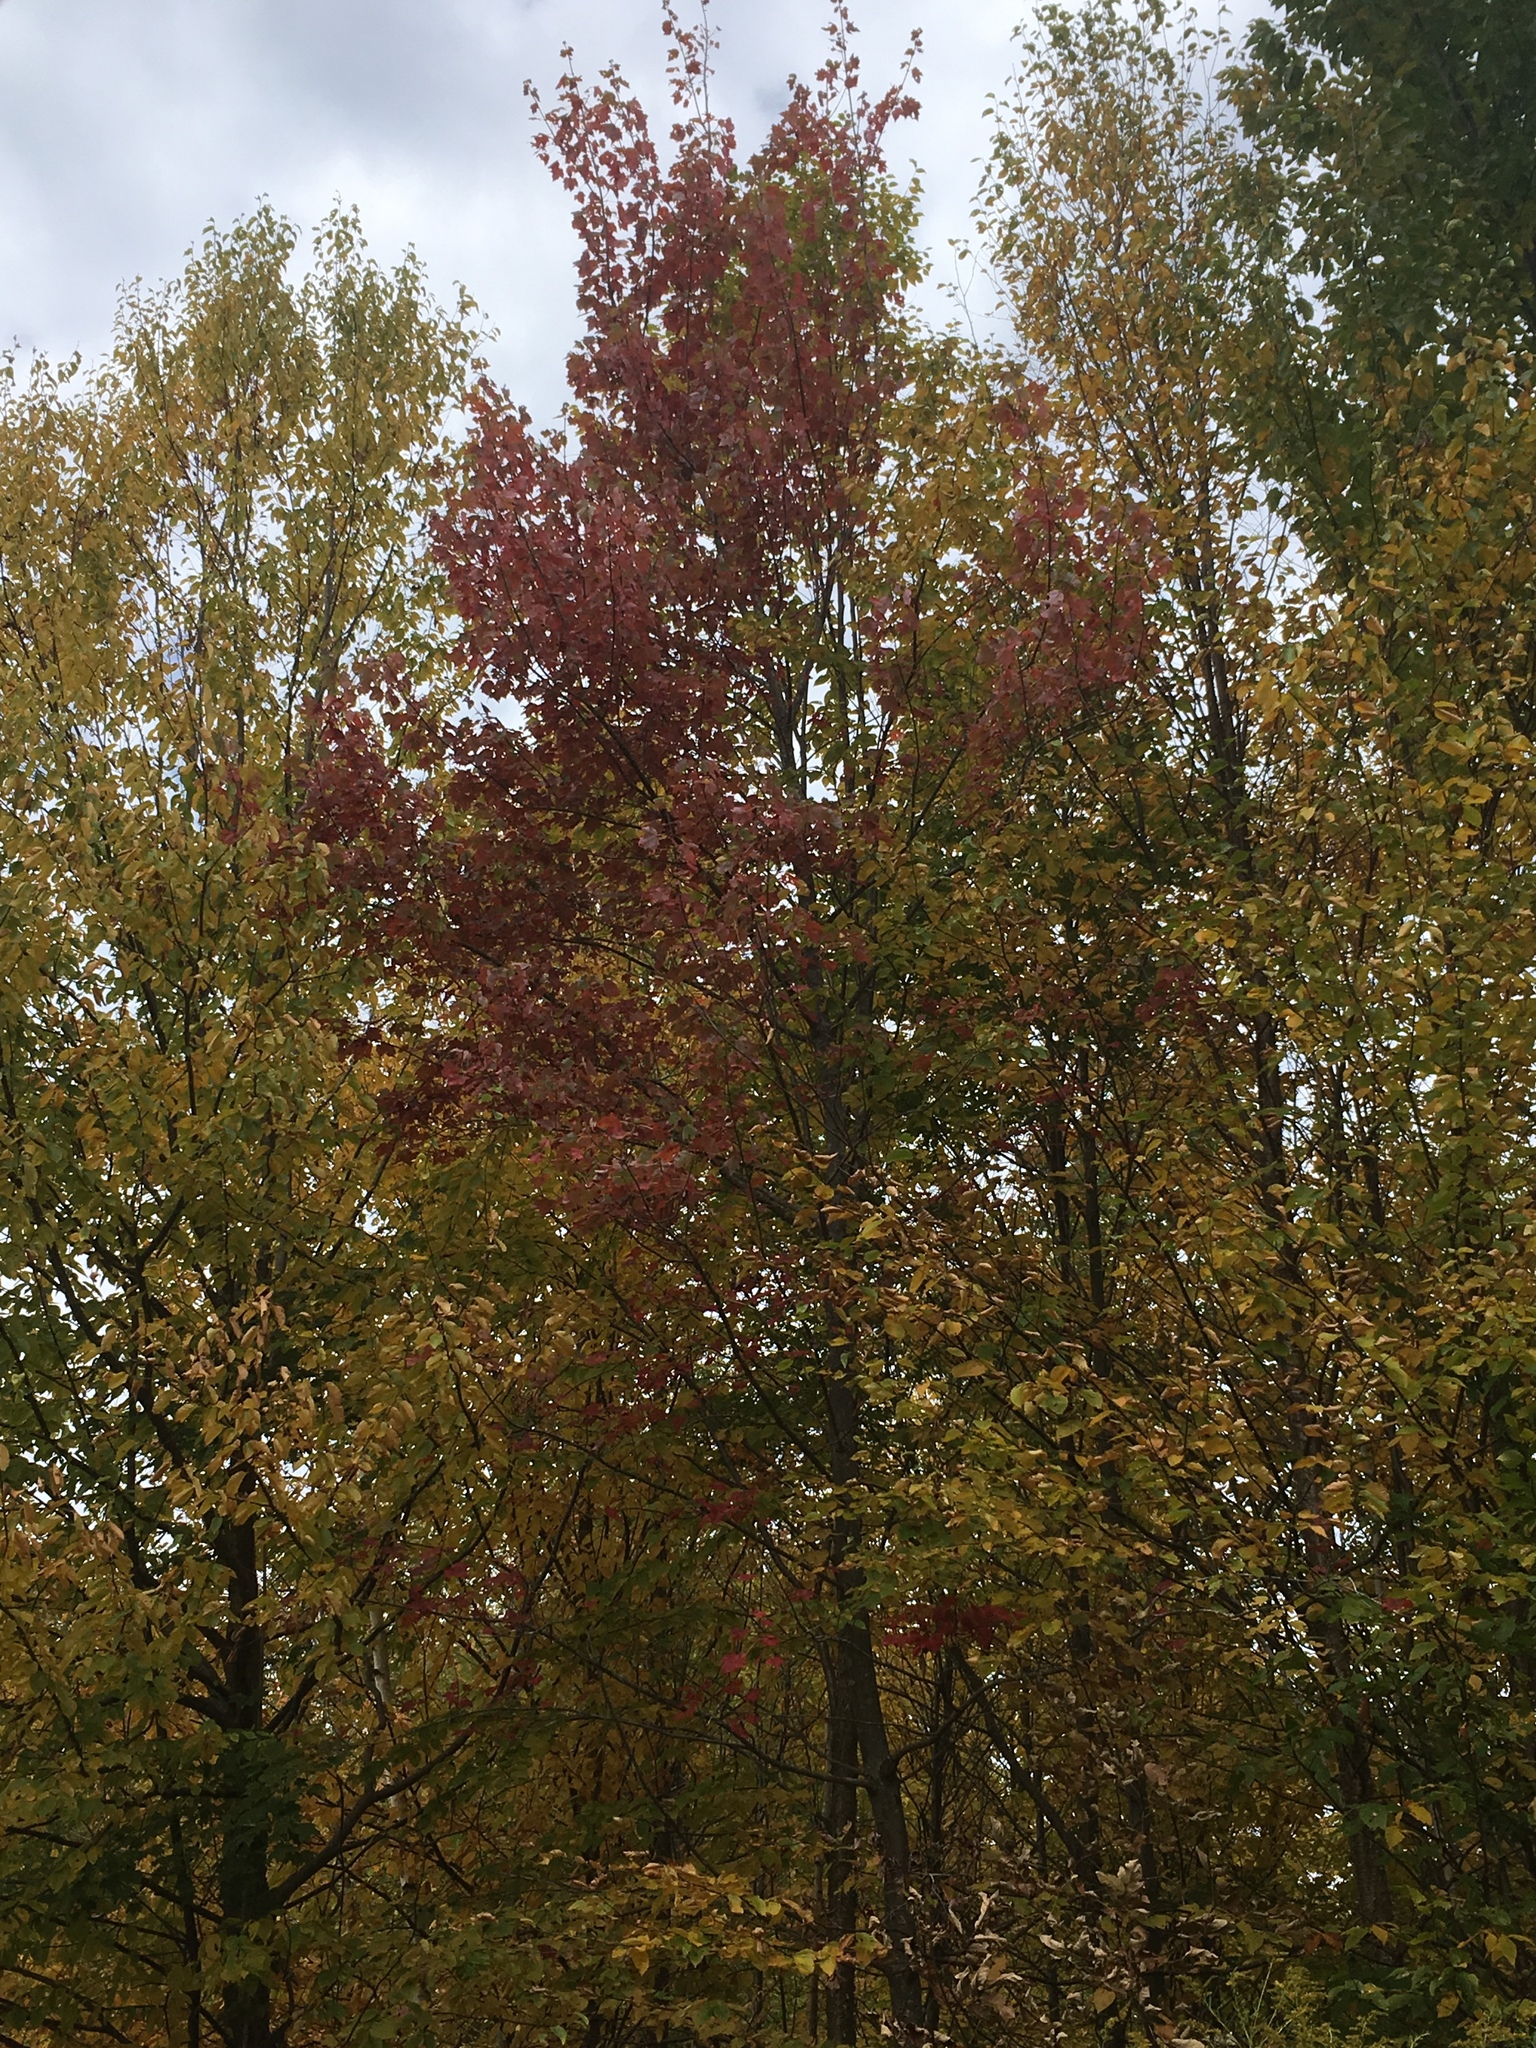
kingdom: Plantae
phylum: Tracheophyta
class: Magnoliopsida
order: Sapindales
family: Sapindaceae
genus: Acer
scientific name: Acer rubrum
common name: Red maple
